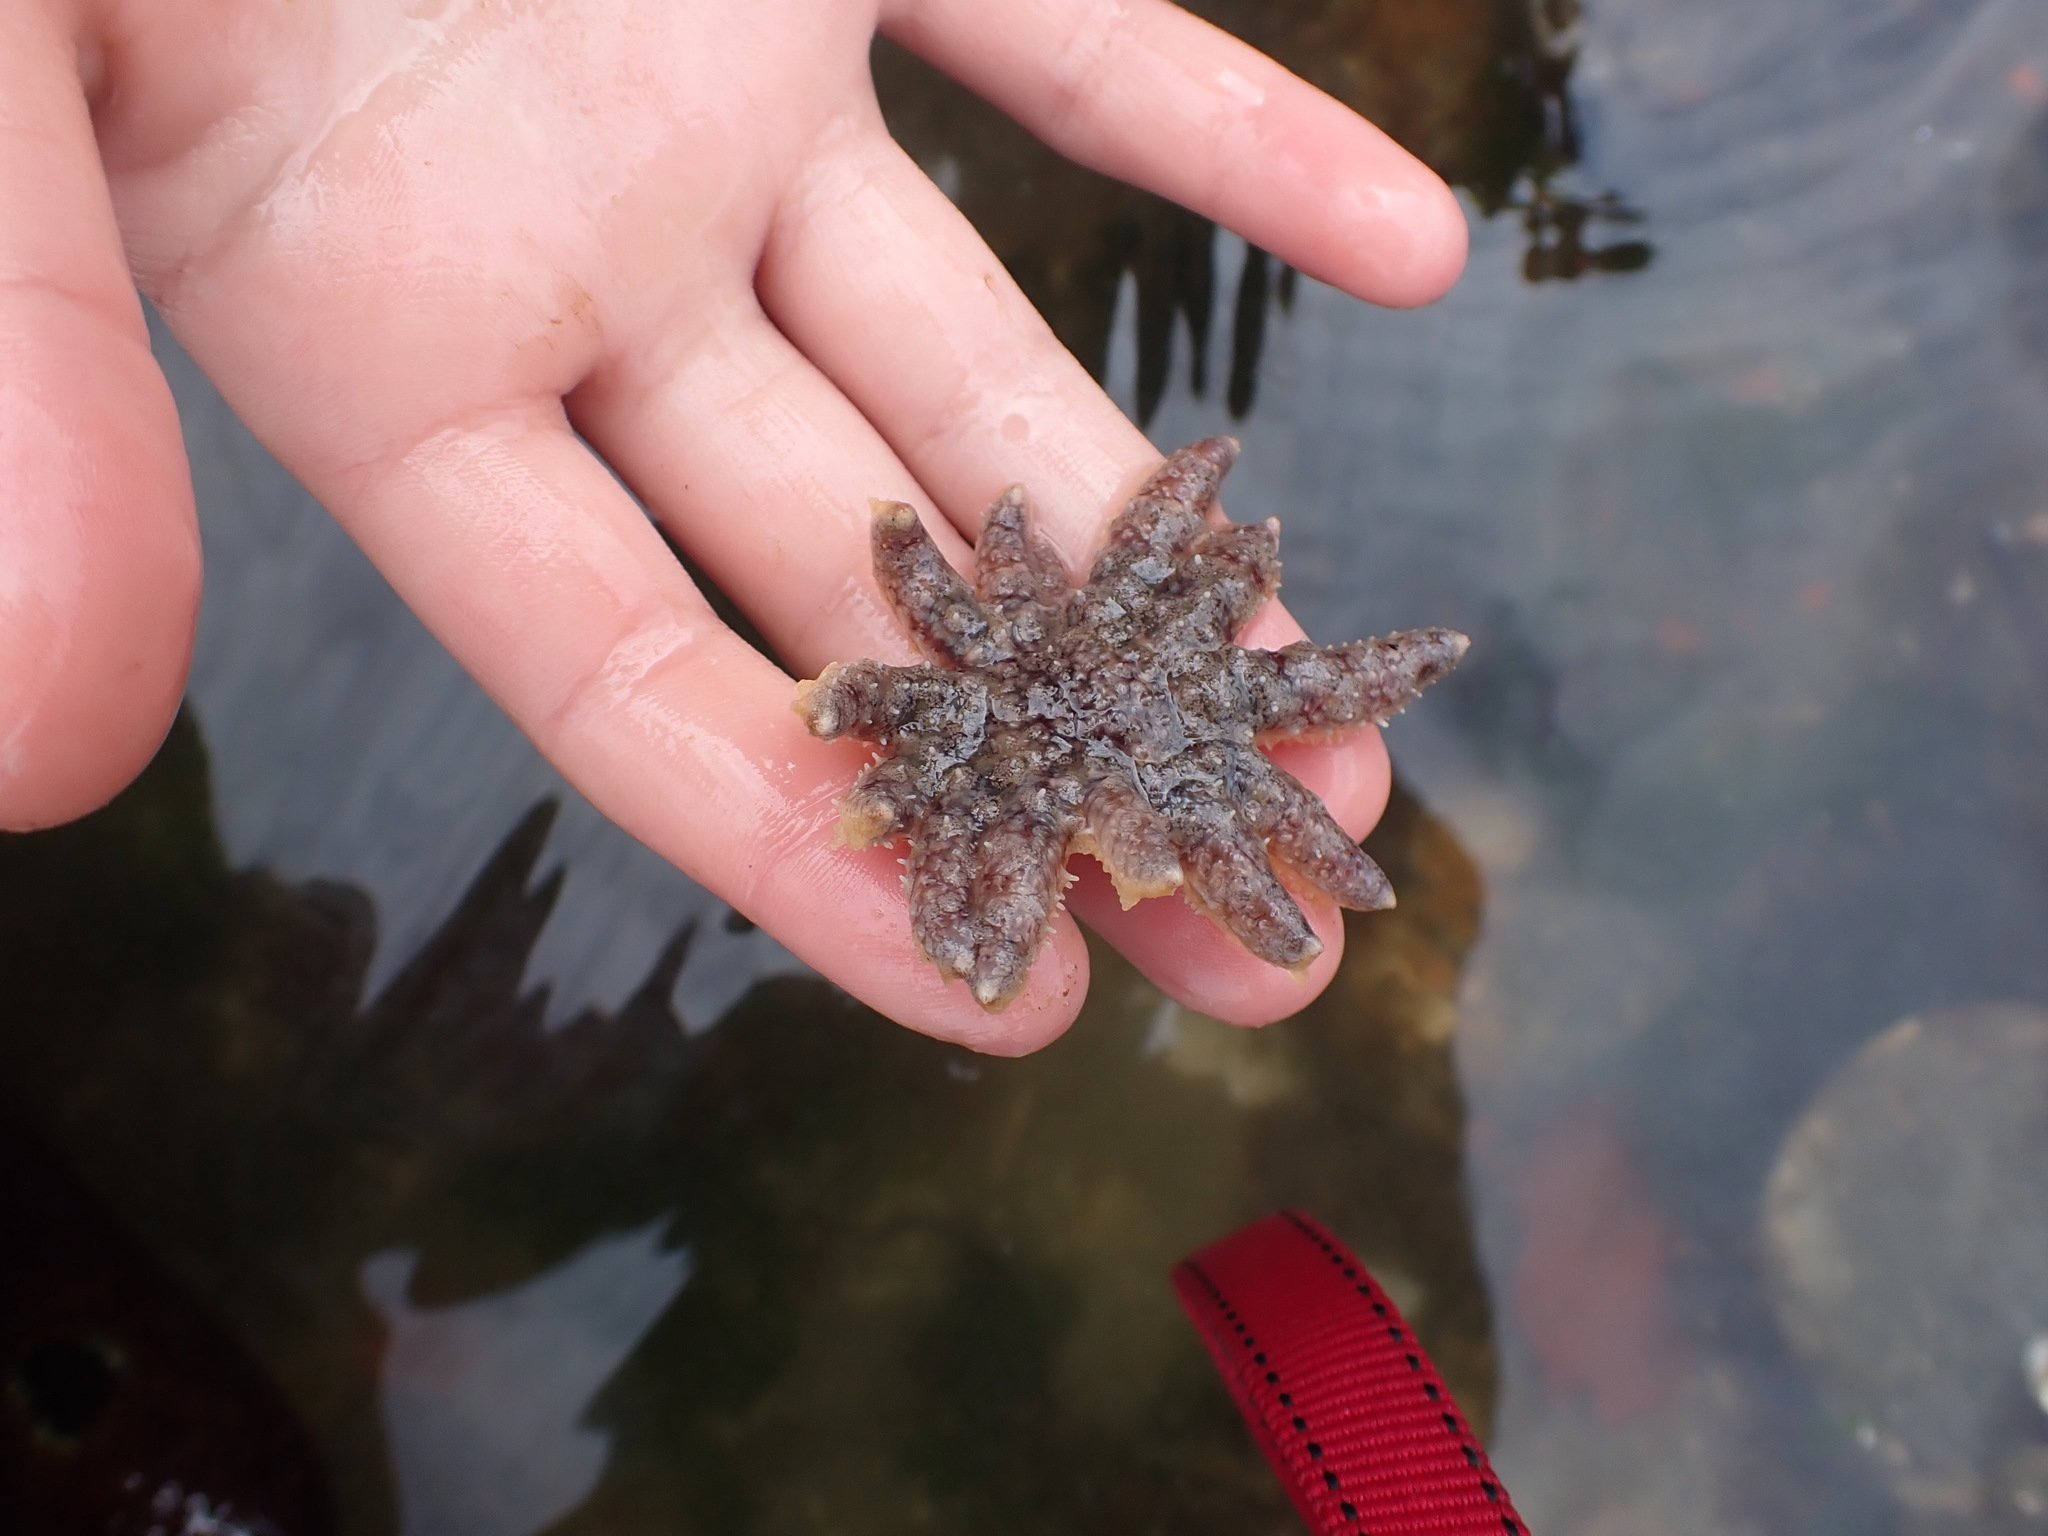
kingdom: Animalia
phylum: Echinodermata
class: Asteroidea
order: Forcipulatida
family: Asteriidae
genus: Pycnopodia
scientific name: Pycnopodia helianthoides
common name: Rag mop
